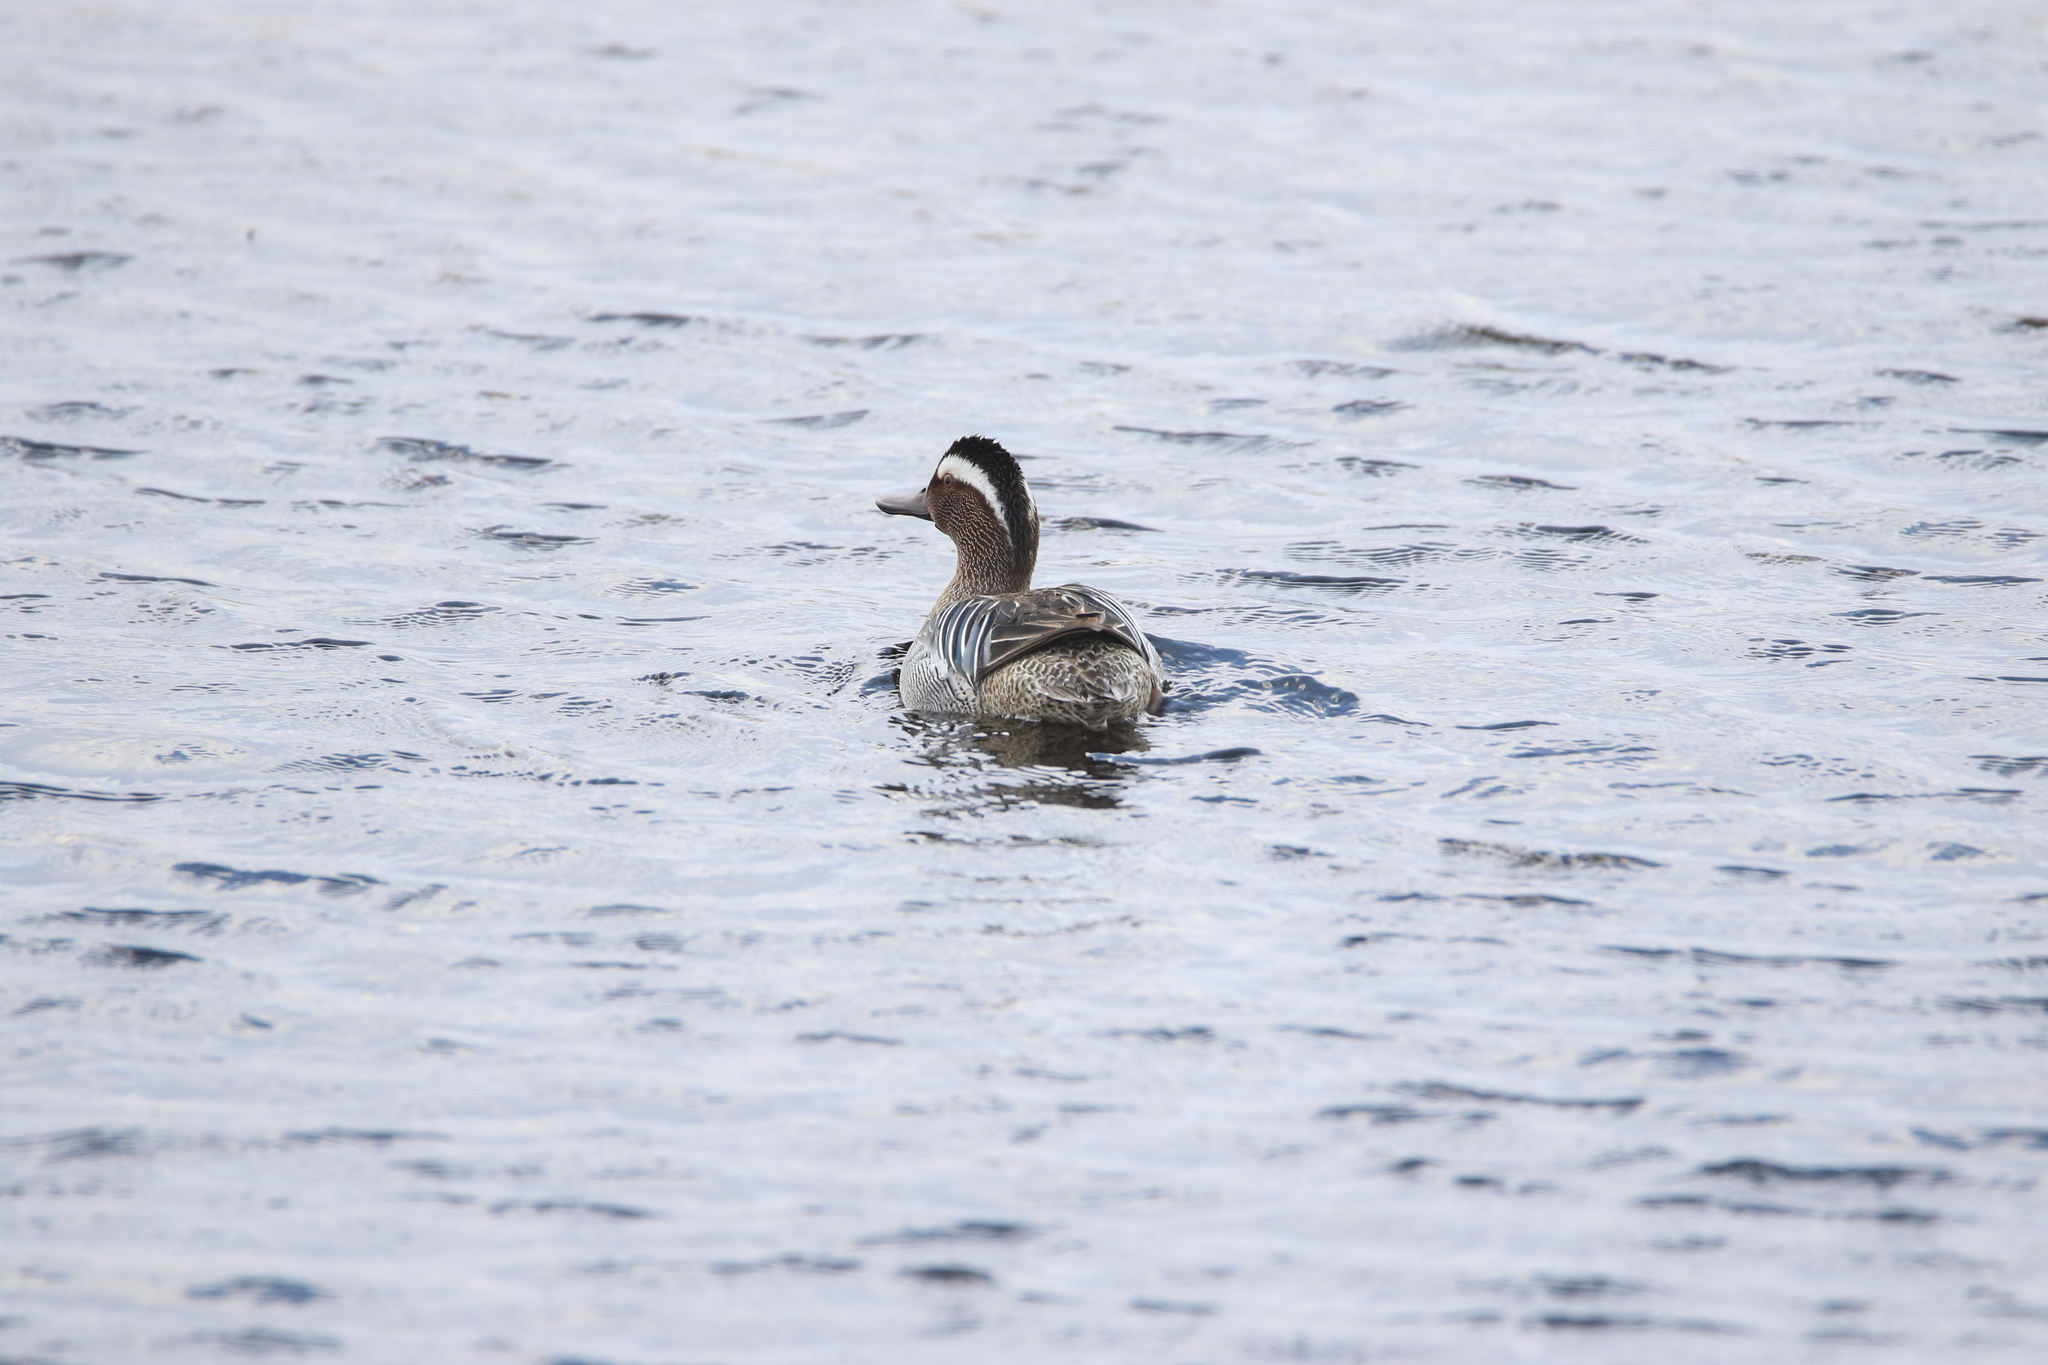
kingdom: Animalia
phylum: Chordata
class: Aves
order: Anseriformes
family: Anatidae
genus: Spatula
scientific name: Spatula querquedula
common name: Garganey
